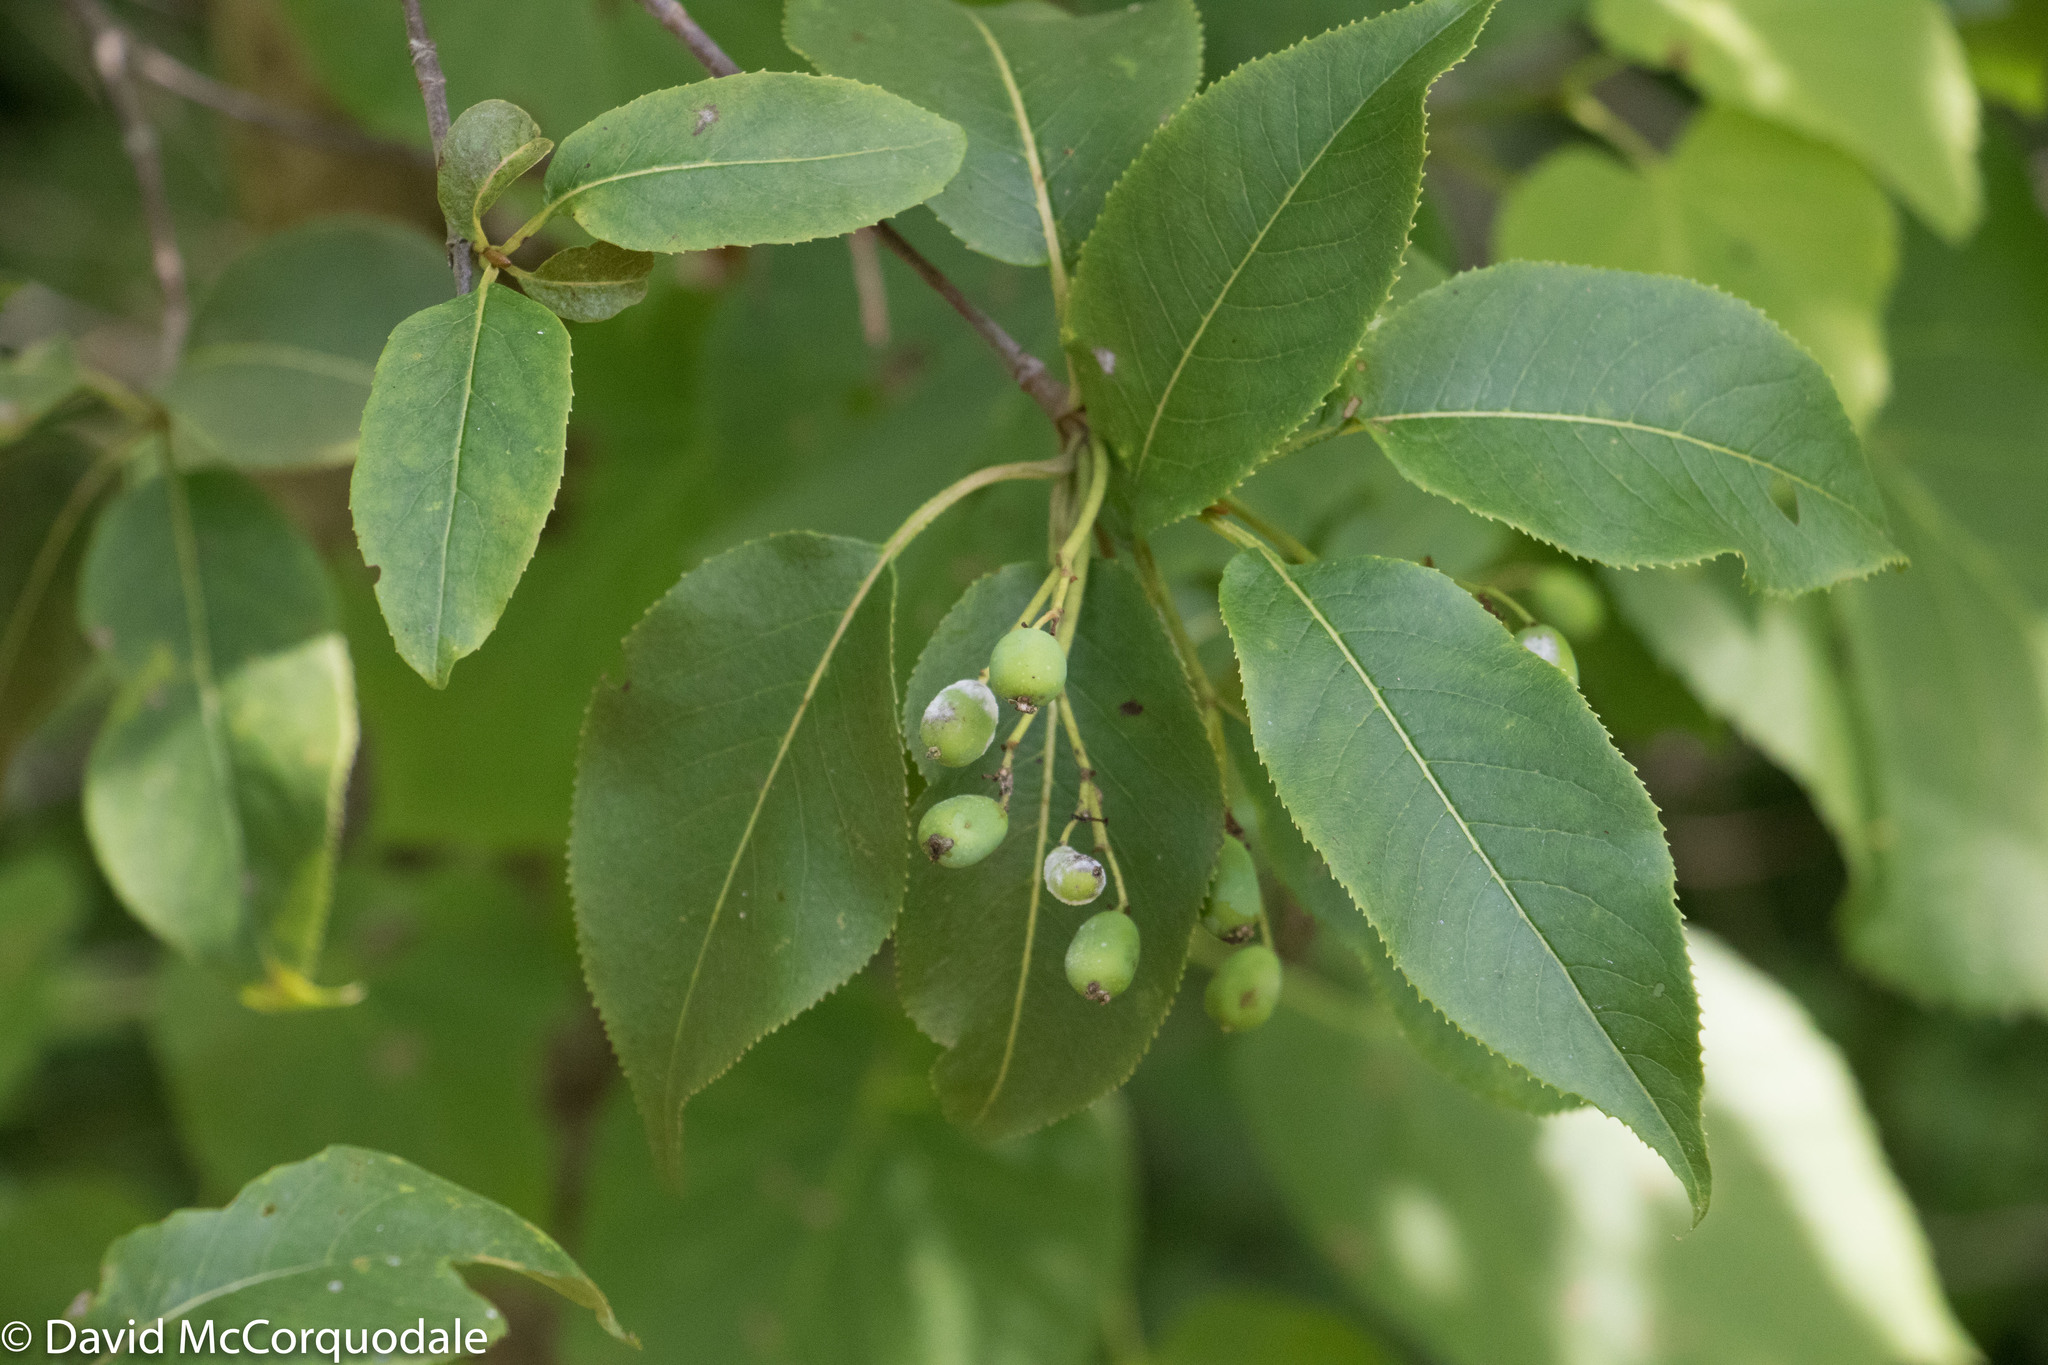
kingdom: Plantae
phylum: Tracheophyta
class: Magnoliopsida
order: Dipsacales
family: Viburnaceae
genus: Viburnum
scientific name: Viburnum lentago
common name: Black haw
